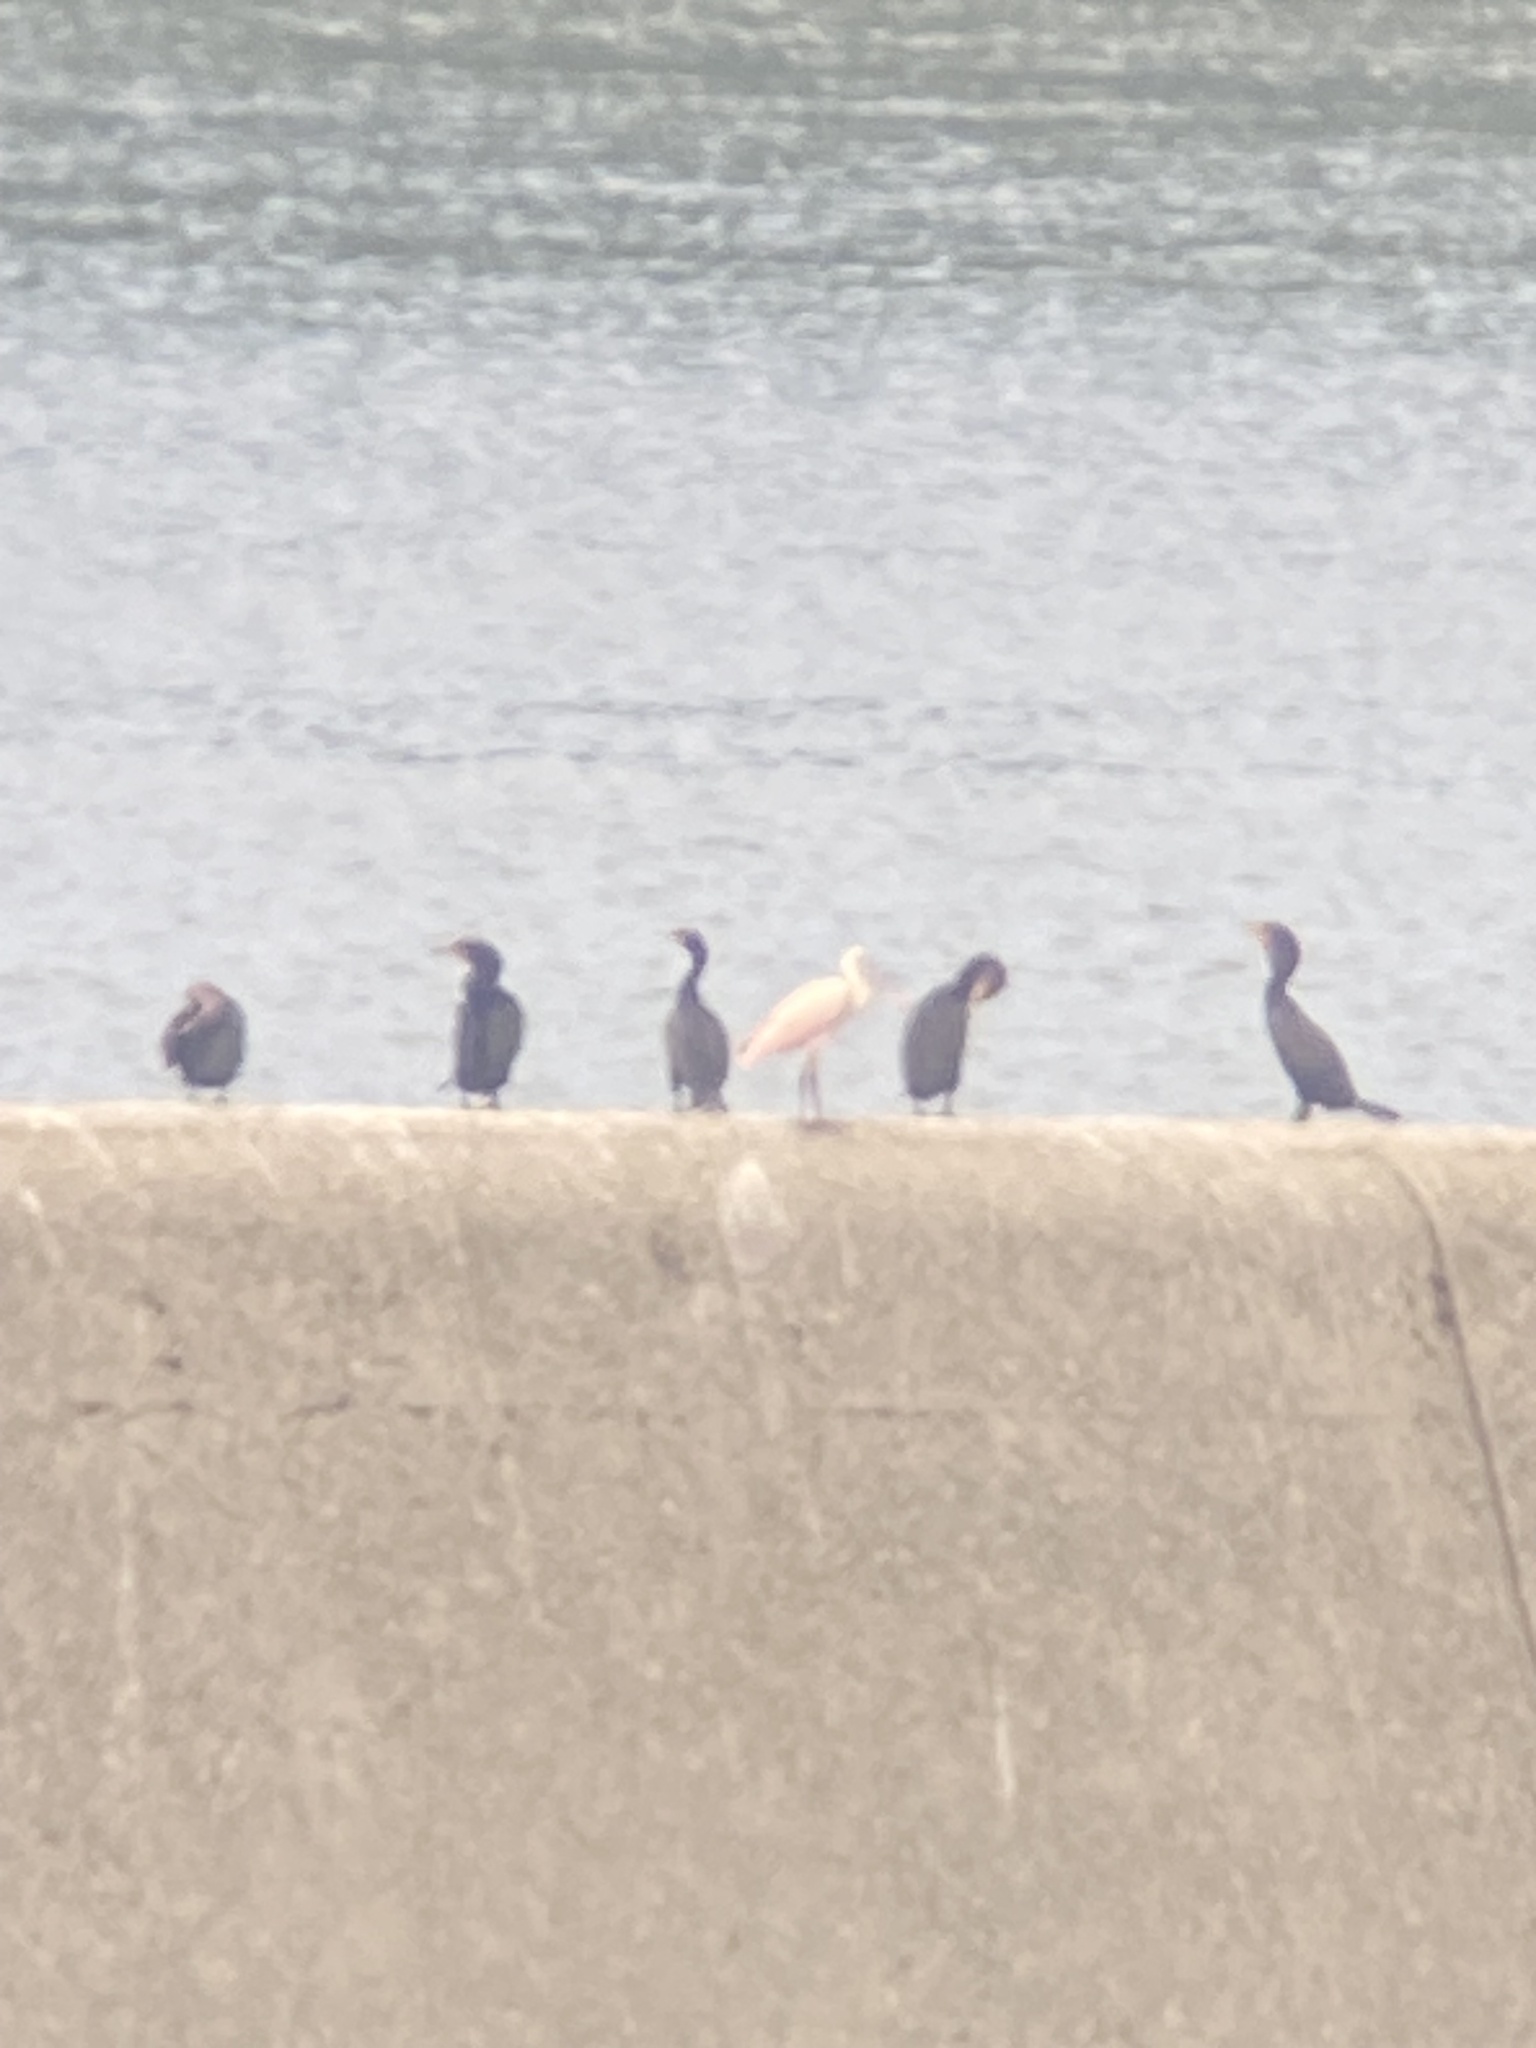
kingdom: Animalia
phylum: Chordata
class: Aves
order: Suliformes
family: Phalacrocoracidae
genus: Phalacrocorax
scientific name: Phalacrocorax auritus
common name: Double-crested cormorant
